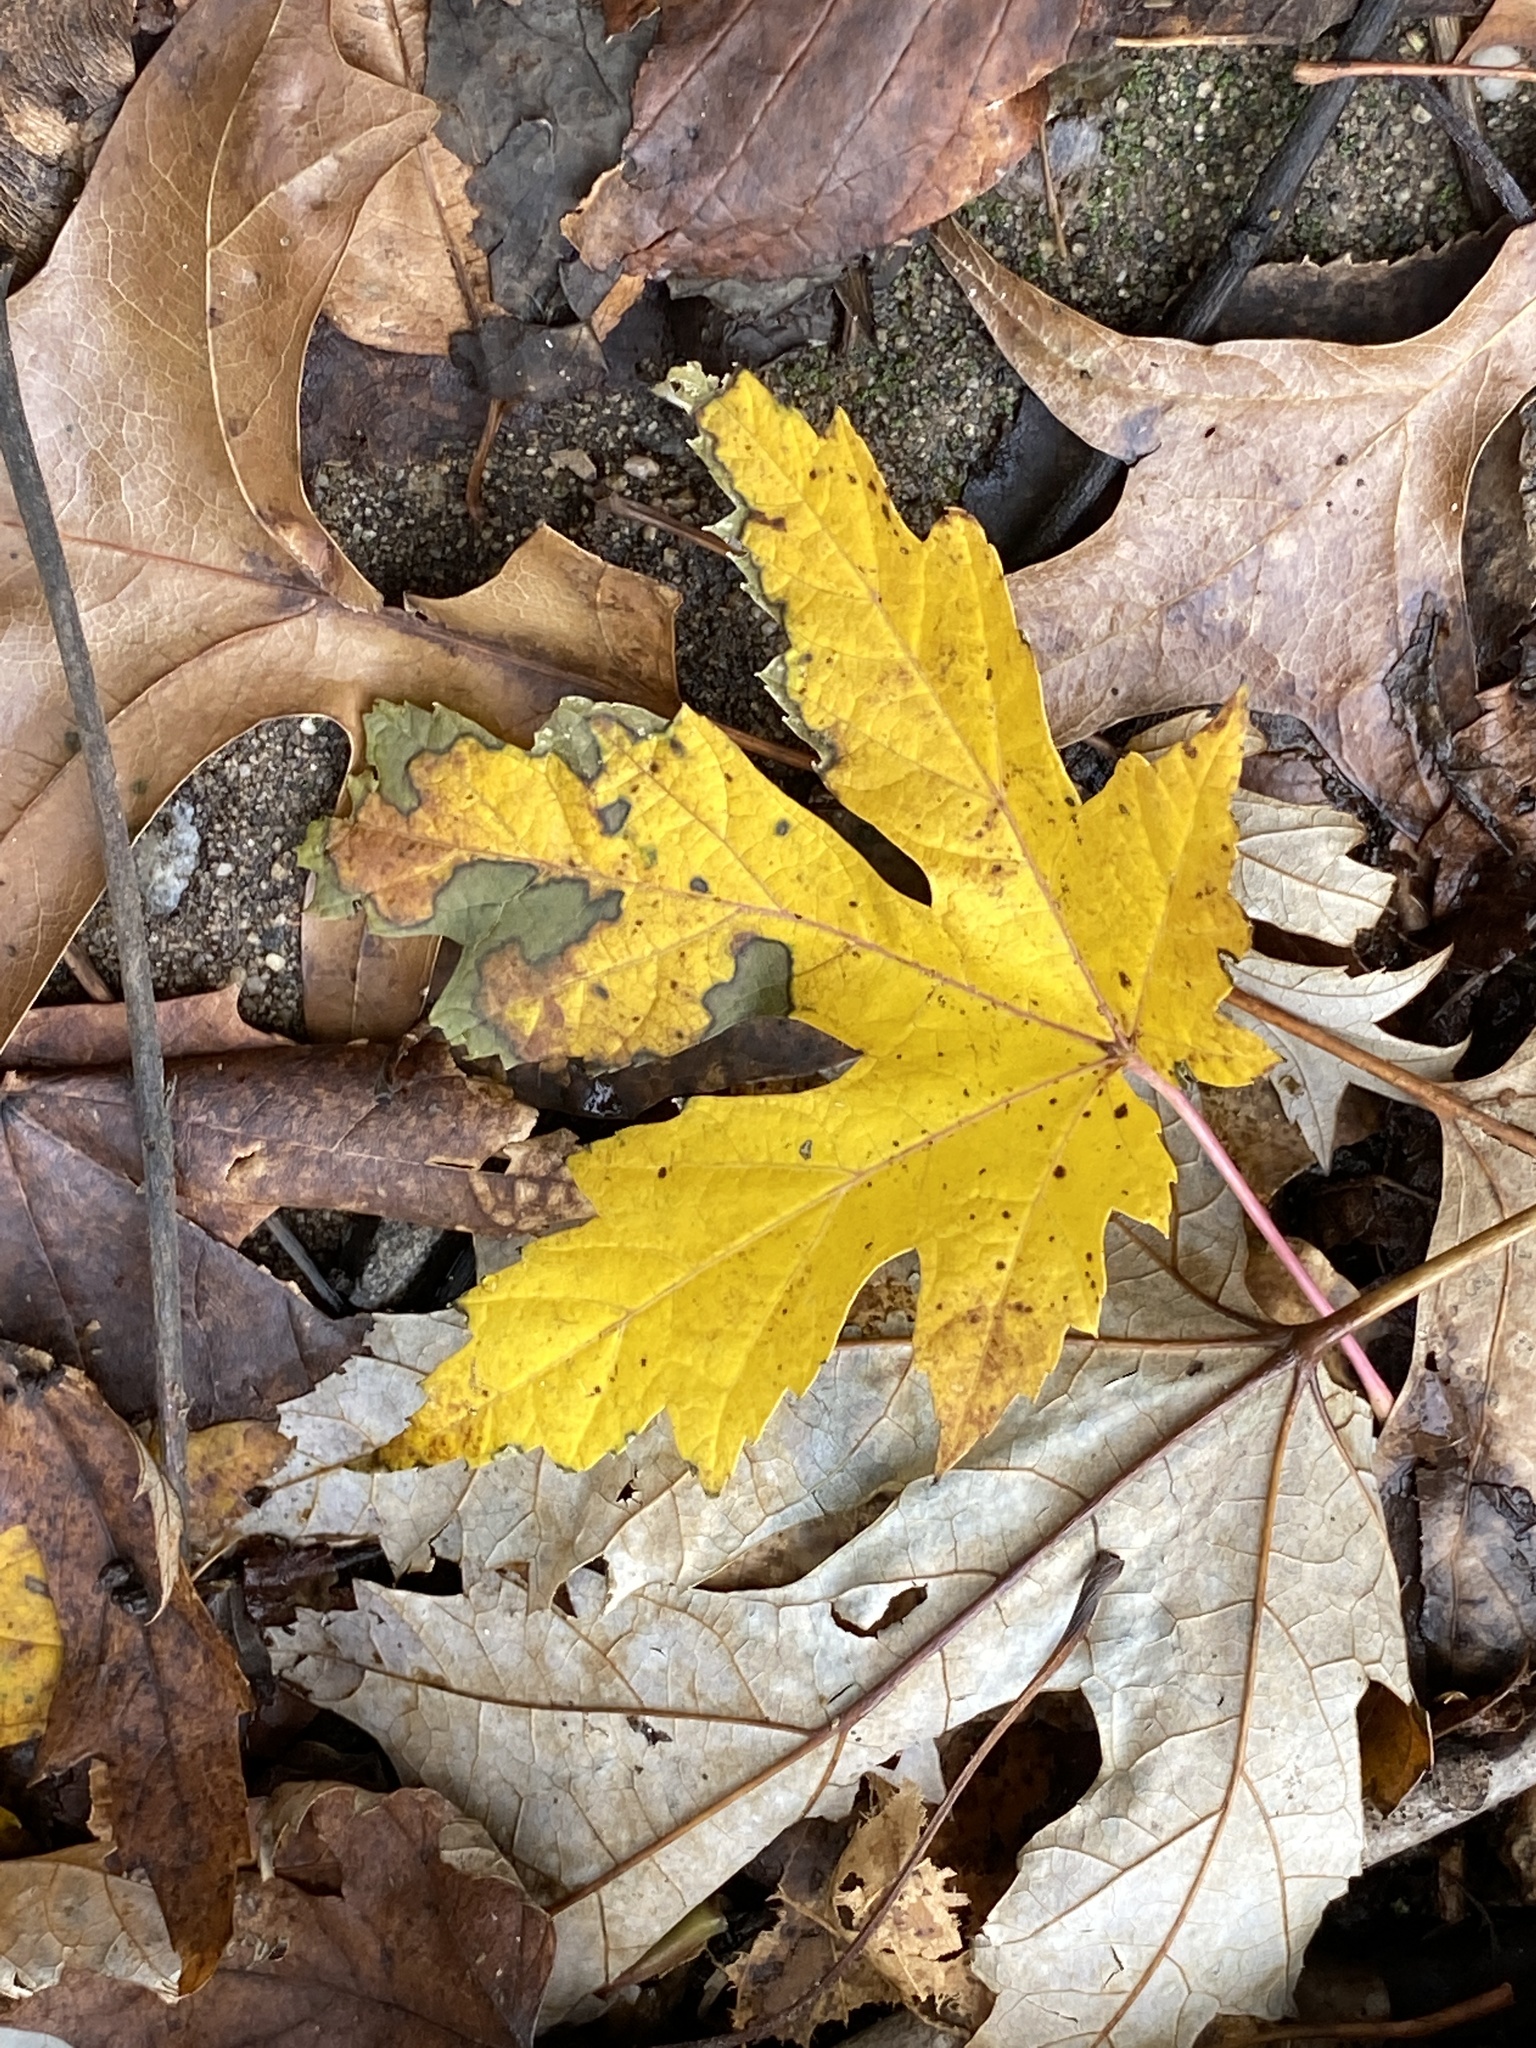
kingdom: Plantae
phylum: Tracheophyta
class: Magnoliopsida
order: Sapindales
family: Sapindaceae
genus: Acer
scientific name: Acer saccharinum
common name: Silver maple
